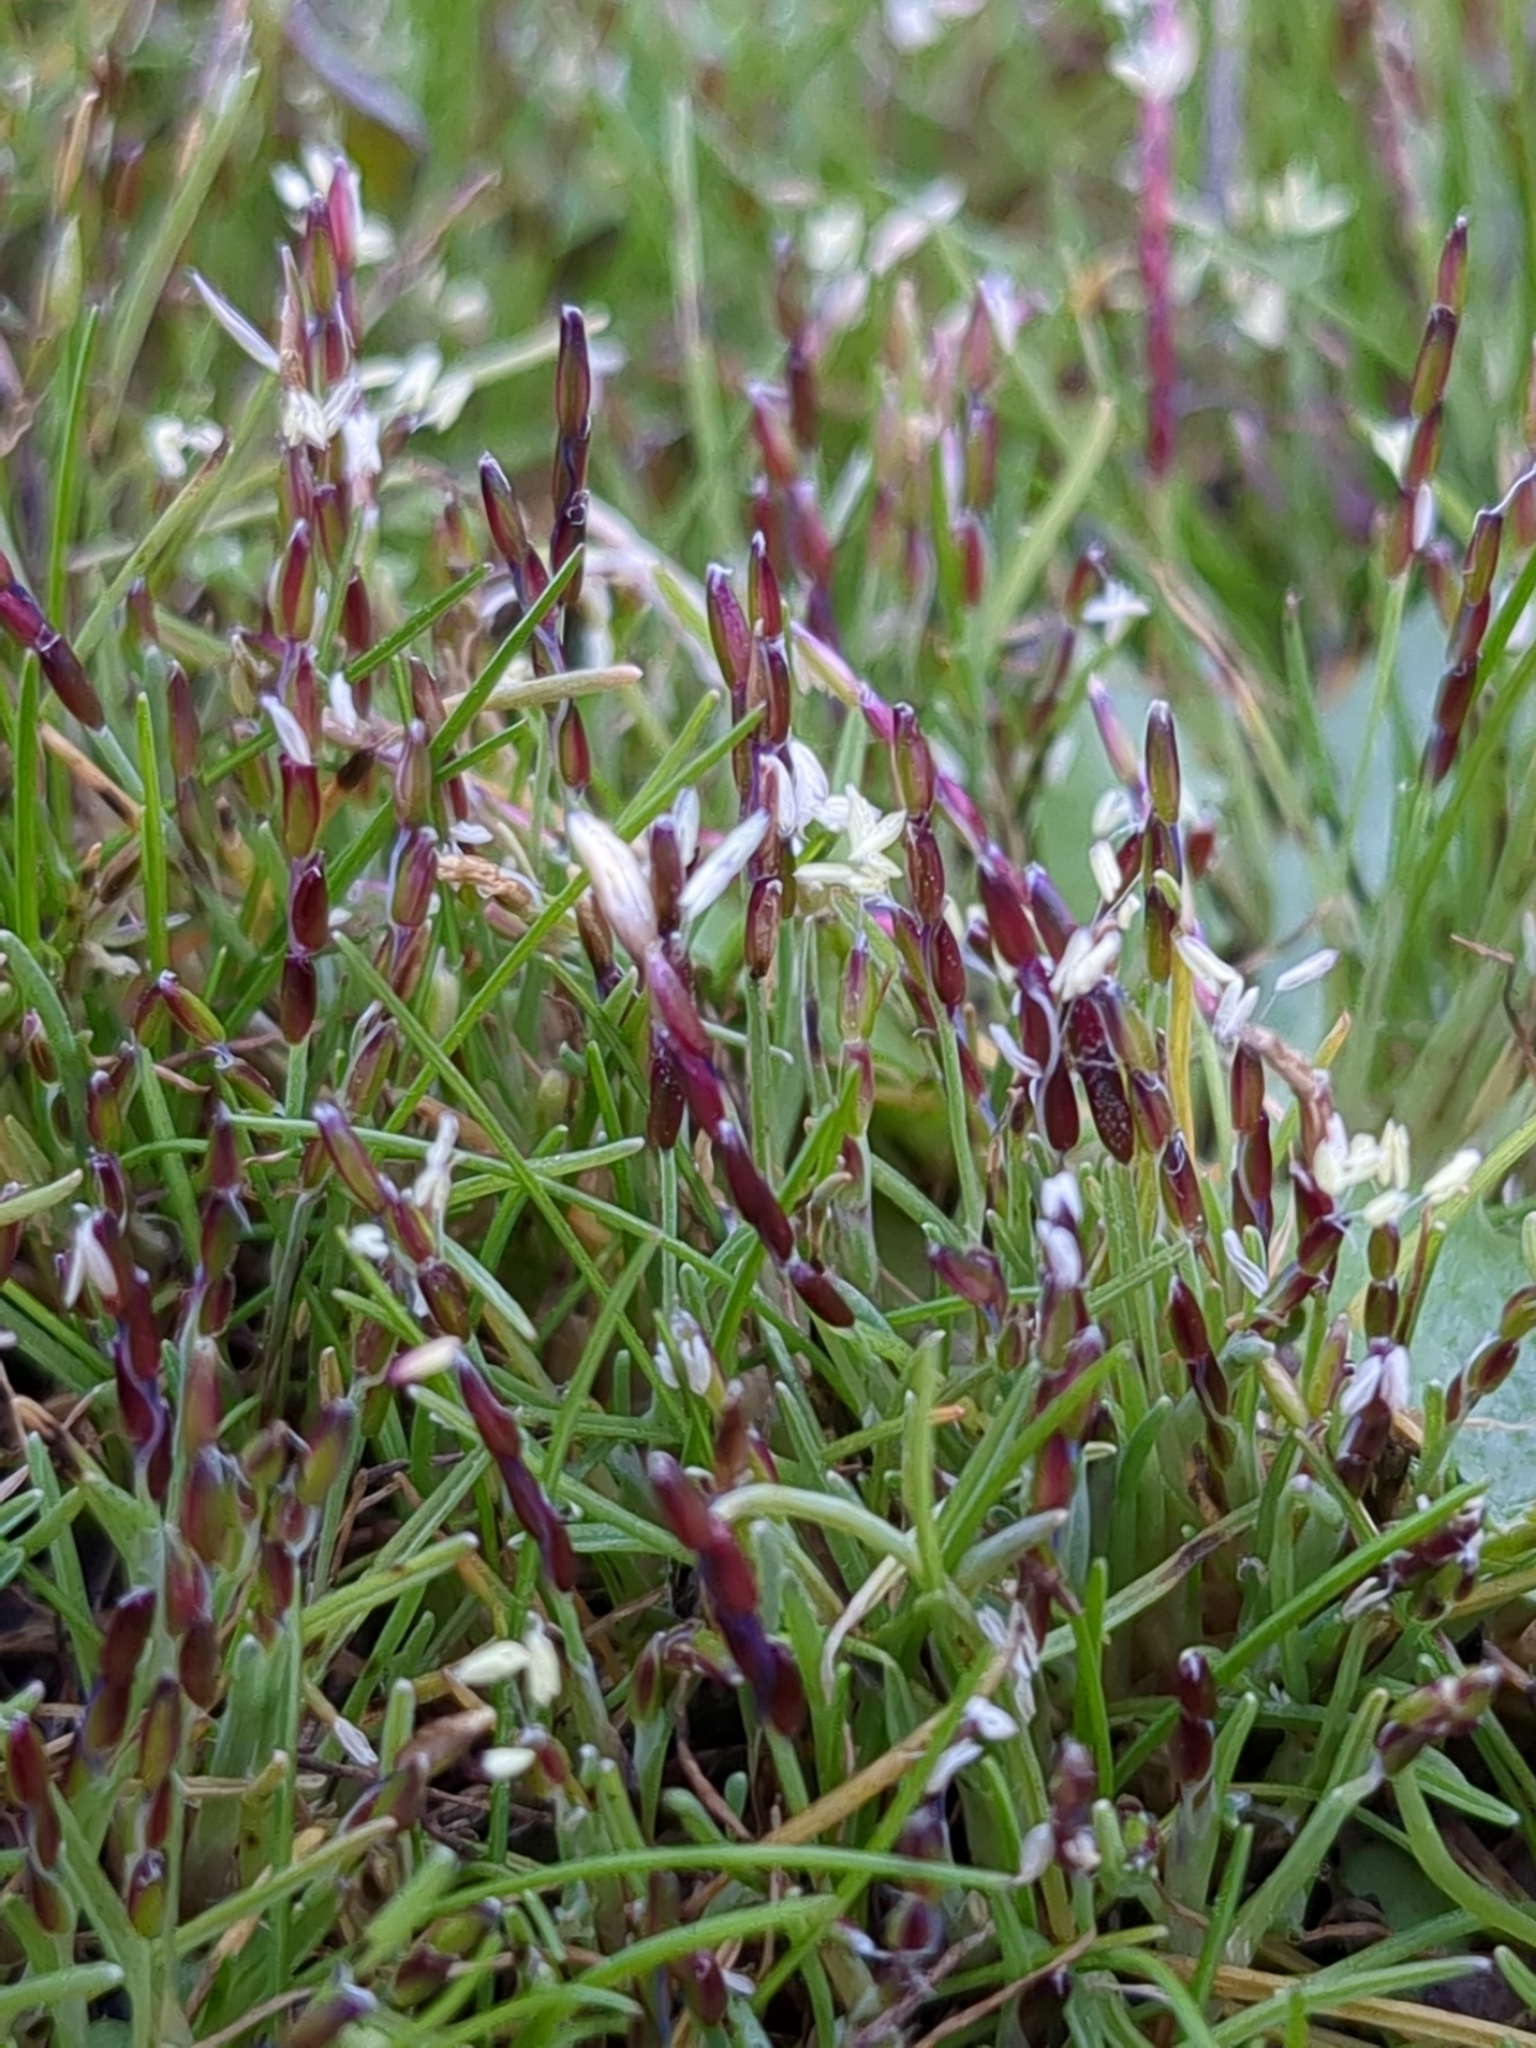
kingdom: Plantae
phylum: Tracheophyta
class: Liliopsida
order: Poales
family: Poaceae
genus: Mibora
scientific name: Mibora minima
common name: Early sand-grass
